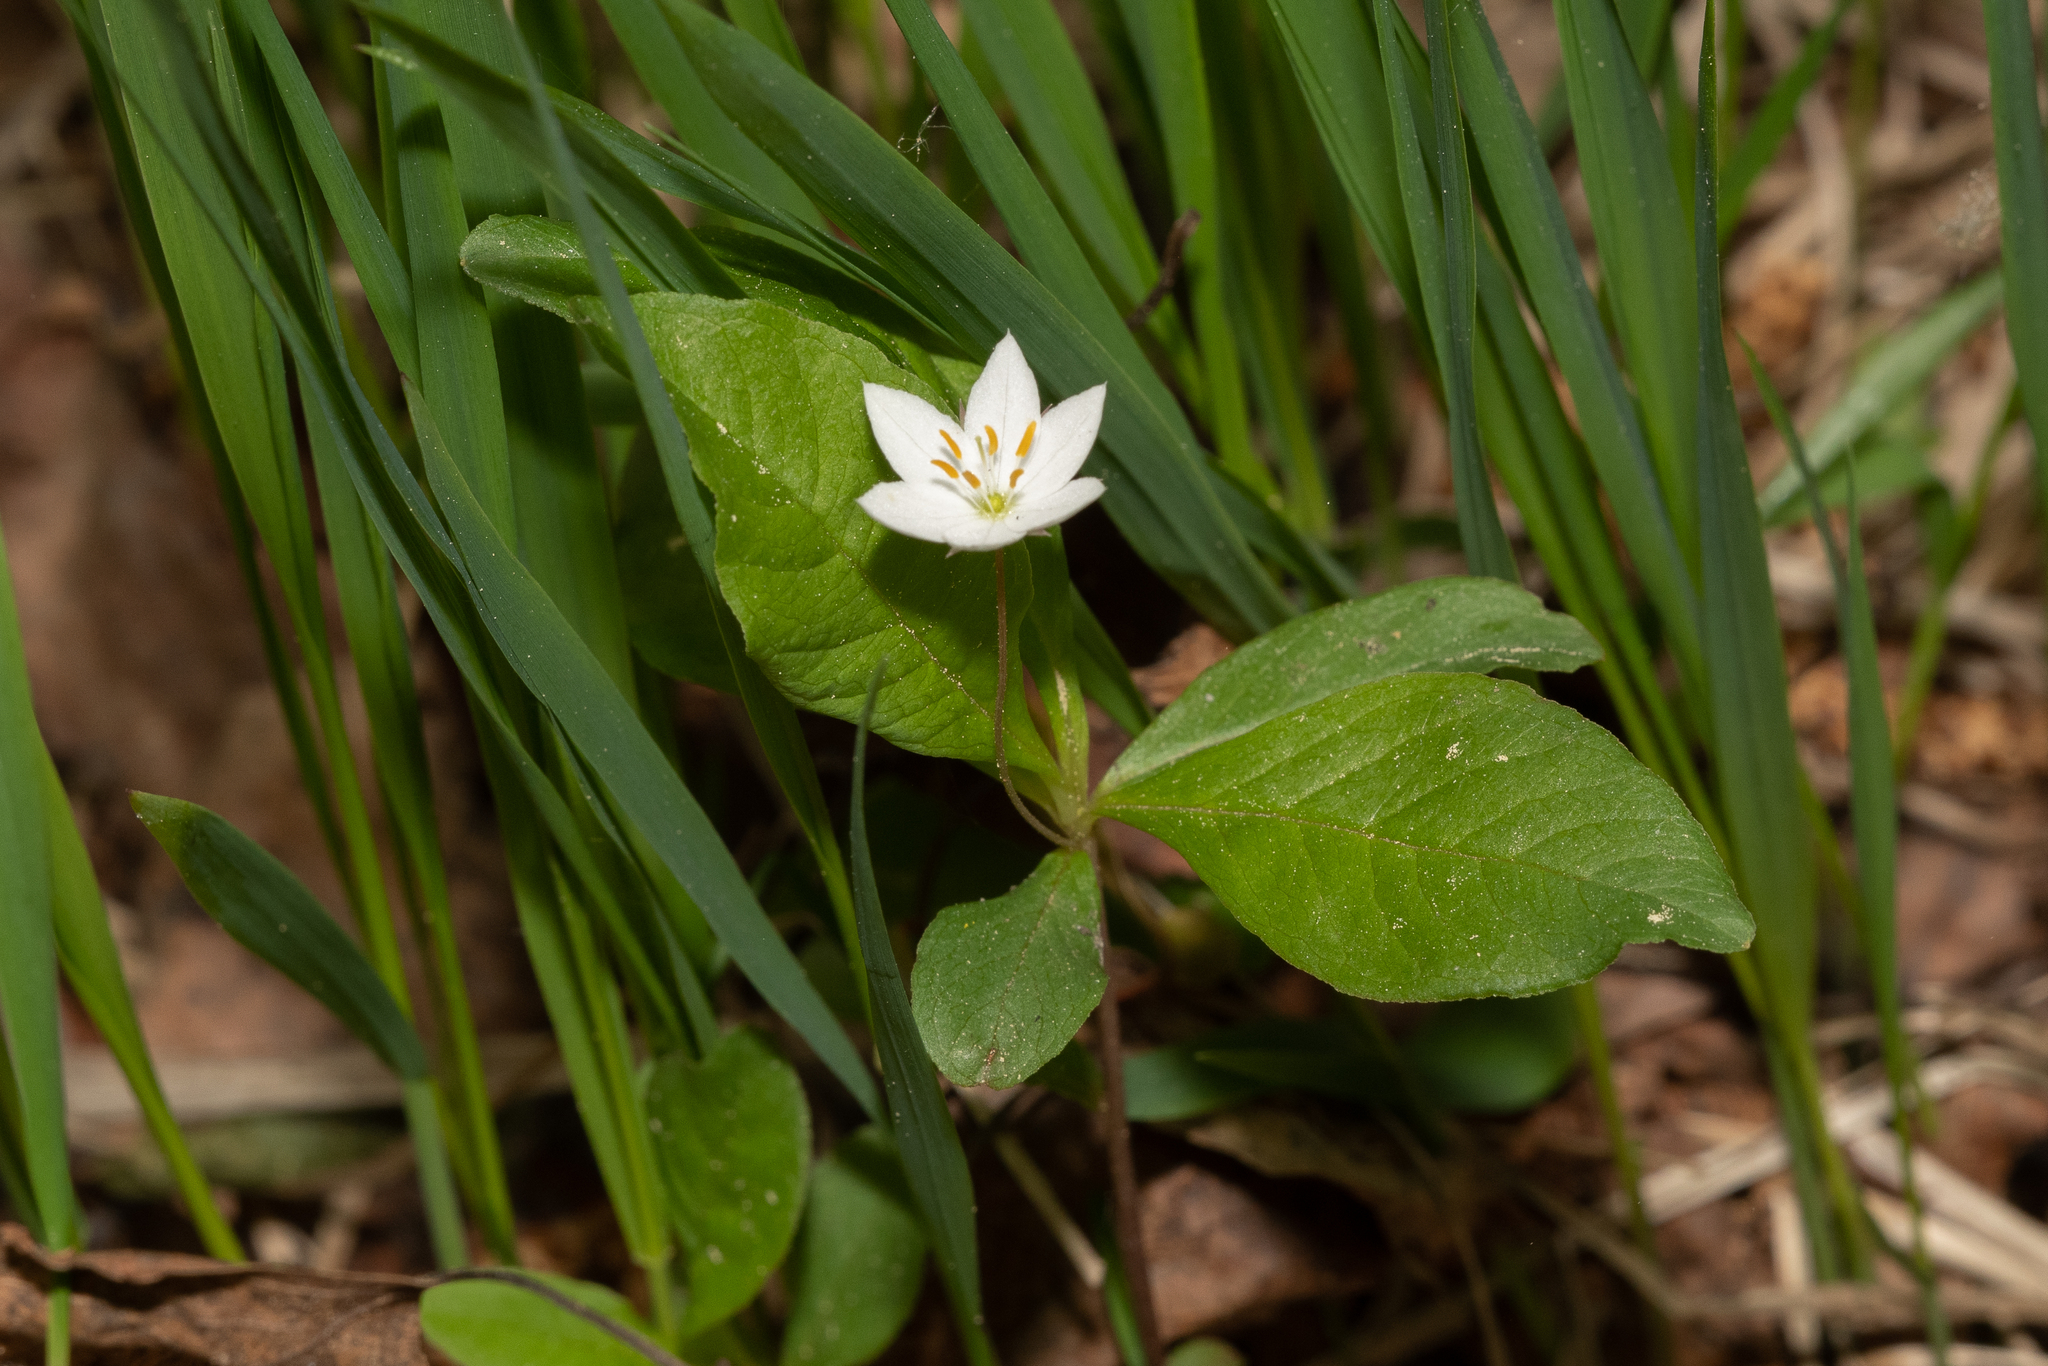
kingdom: Plantae
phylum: Tracheophyta
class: Magnoliopsida
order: Ericales
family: Primulaceae
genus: Lysimachia
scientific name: Lysimachia europaea
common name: Arctic starflower
